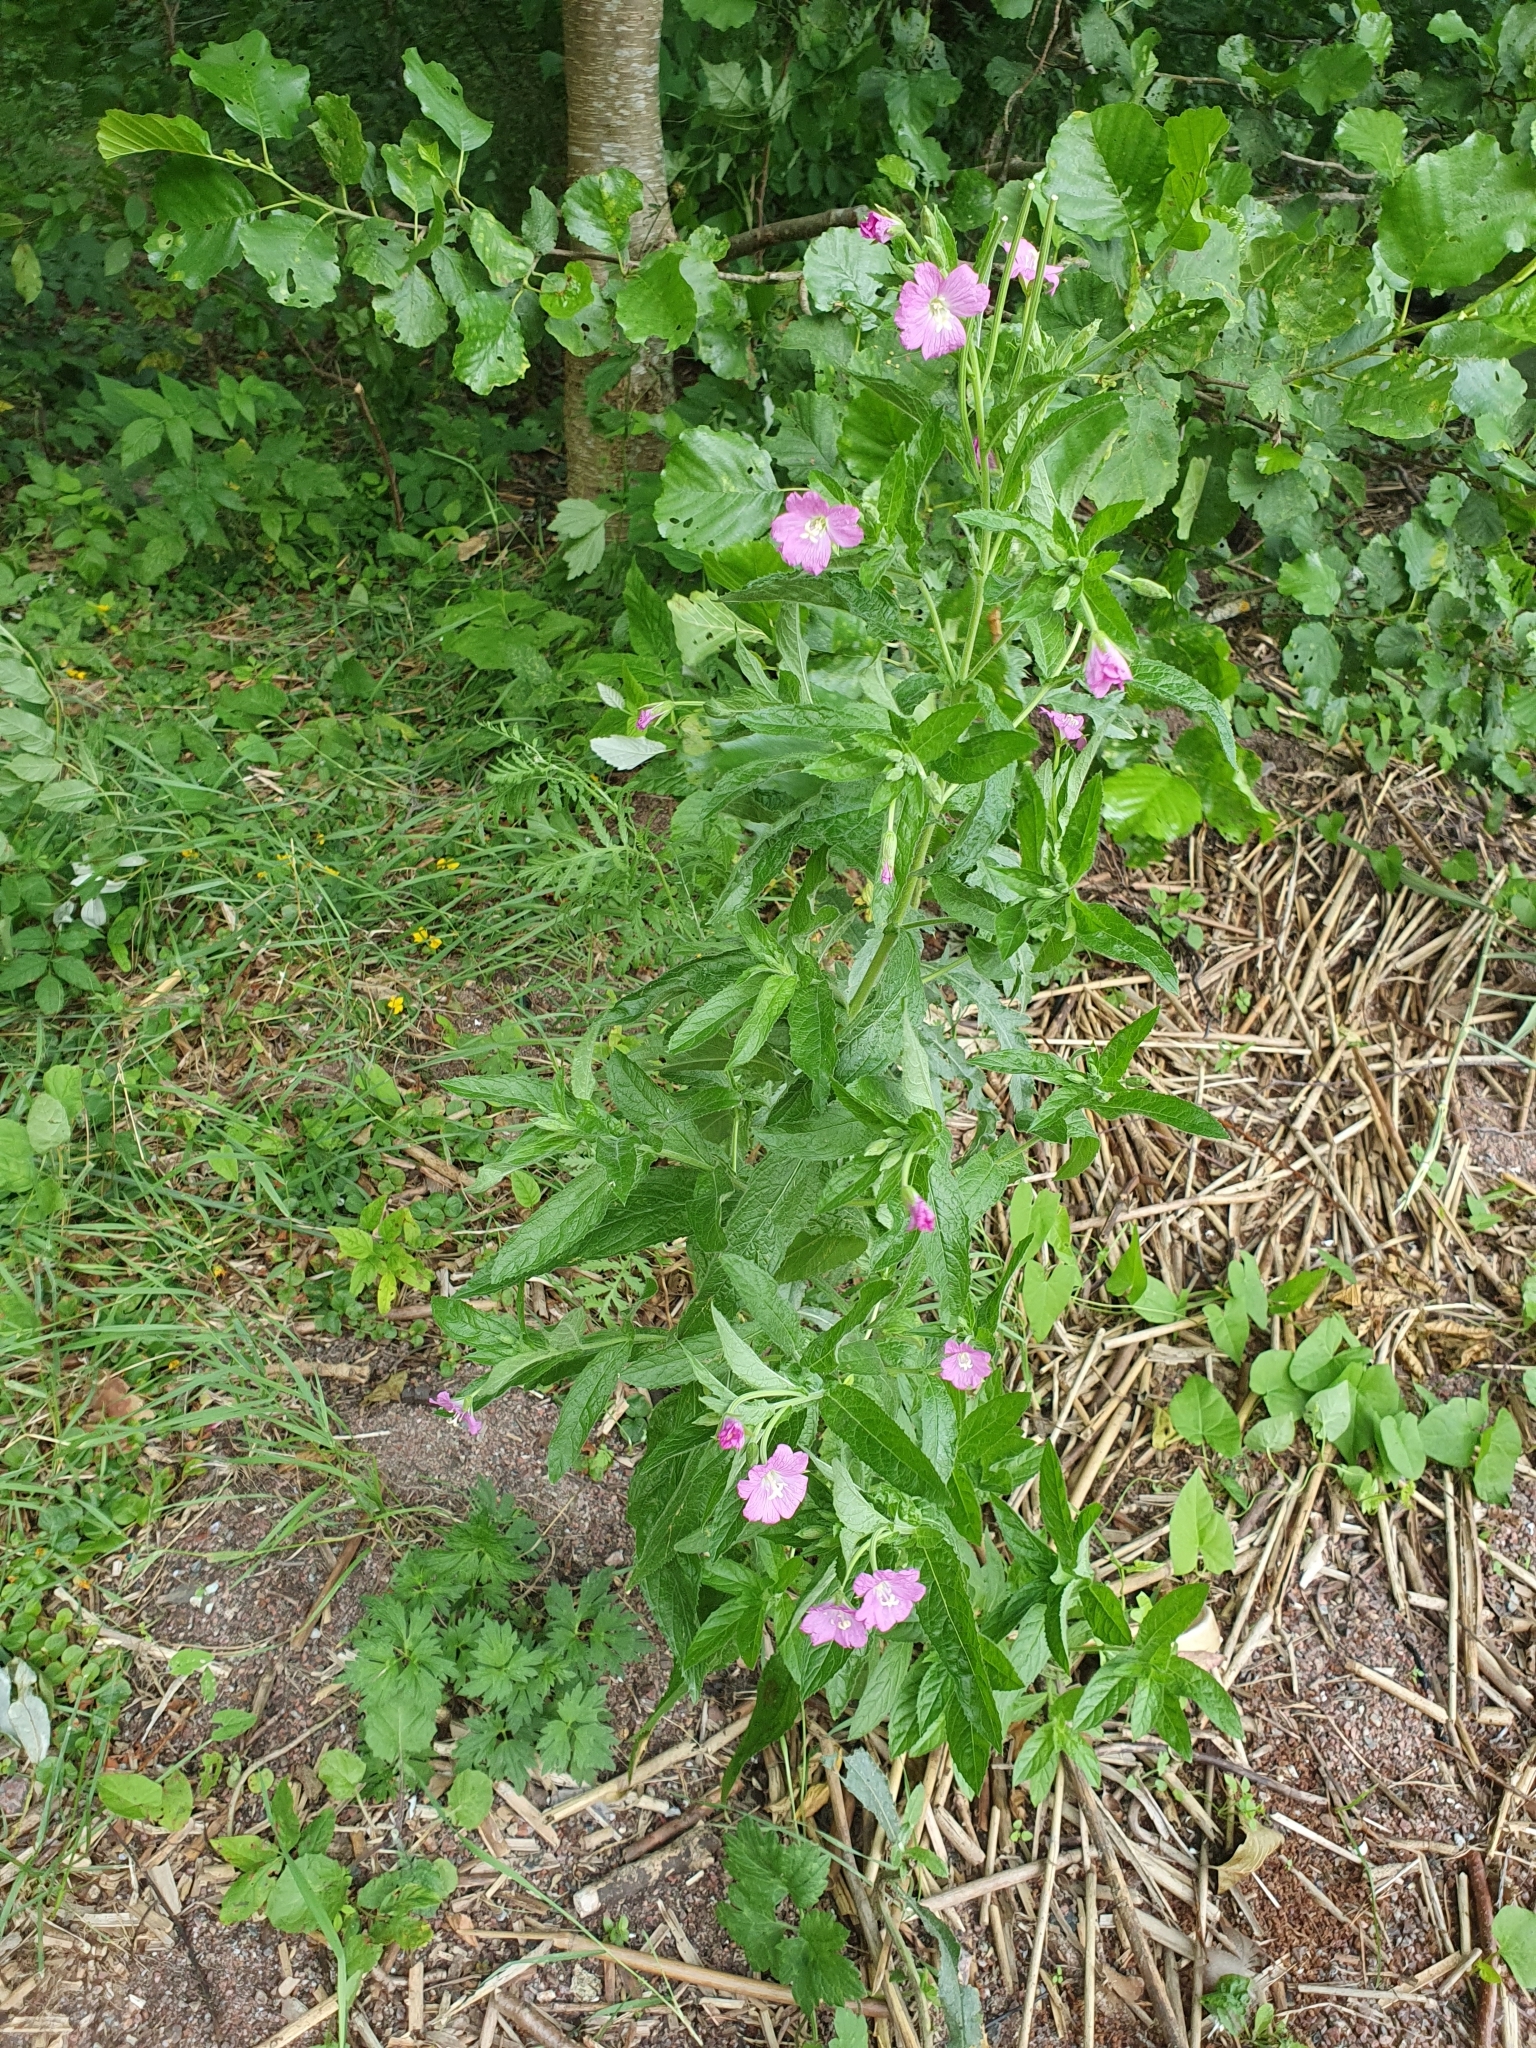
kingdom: Plantae
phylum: Tracheophyta
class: Magnoliopsida
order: Myrtales
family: Onagraceae
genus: Epilobium
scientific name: Epilobium hirsutum
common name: Great willowherb
